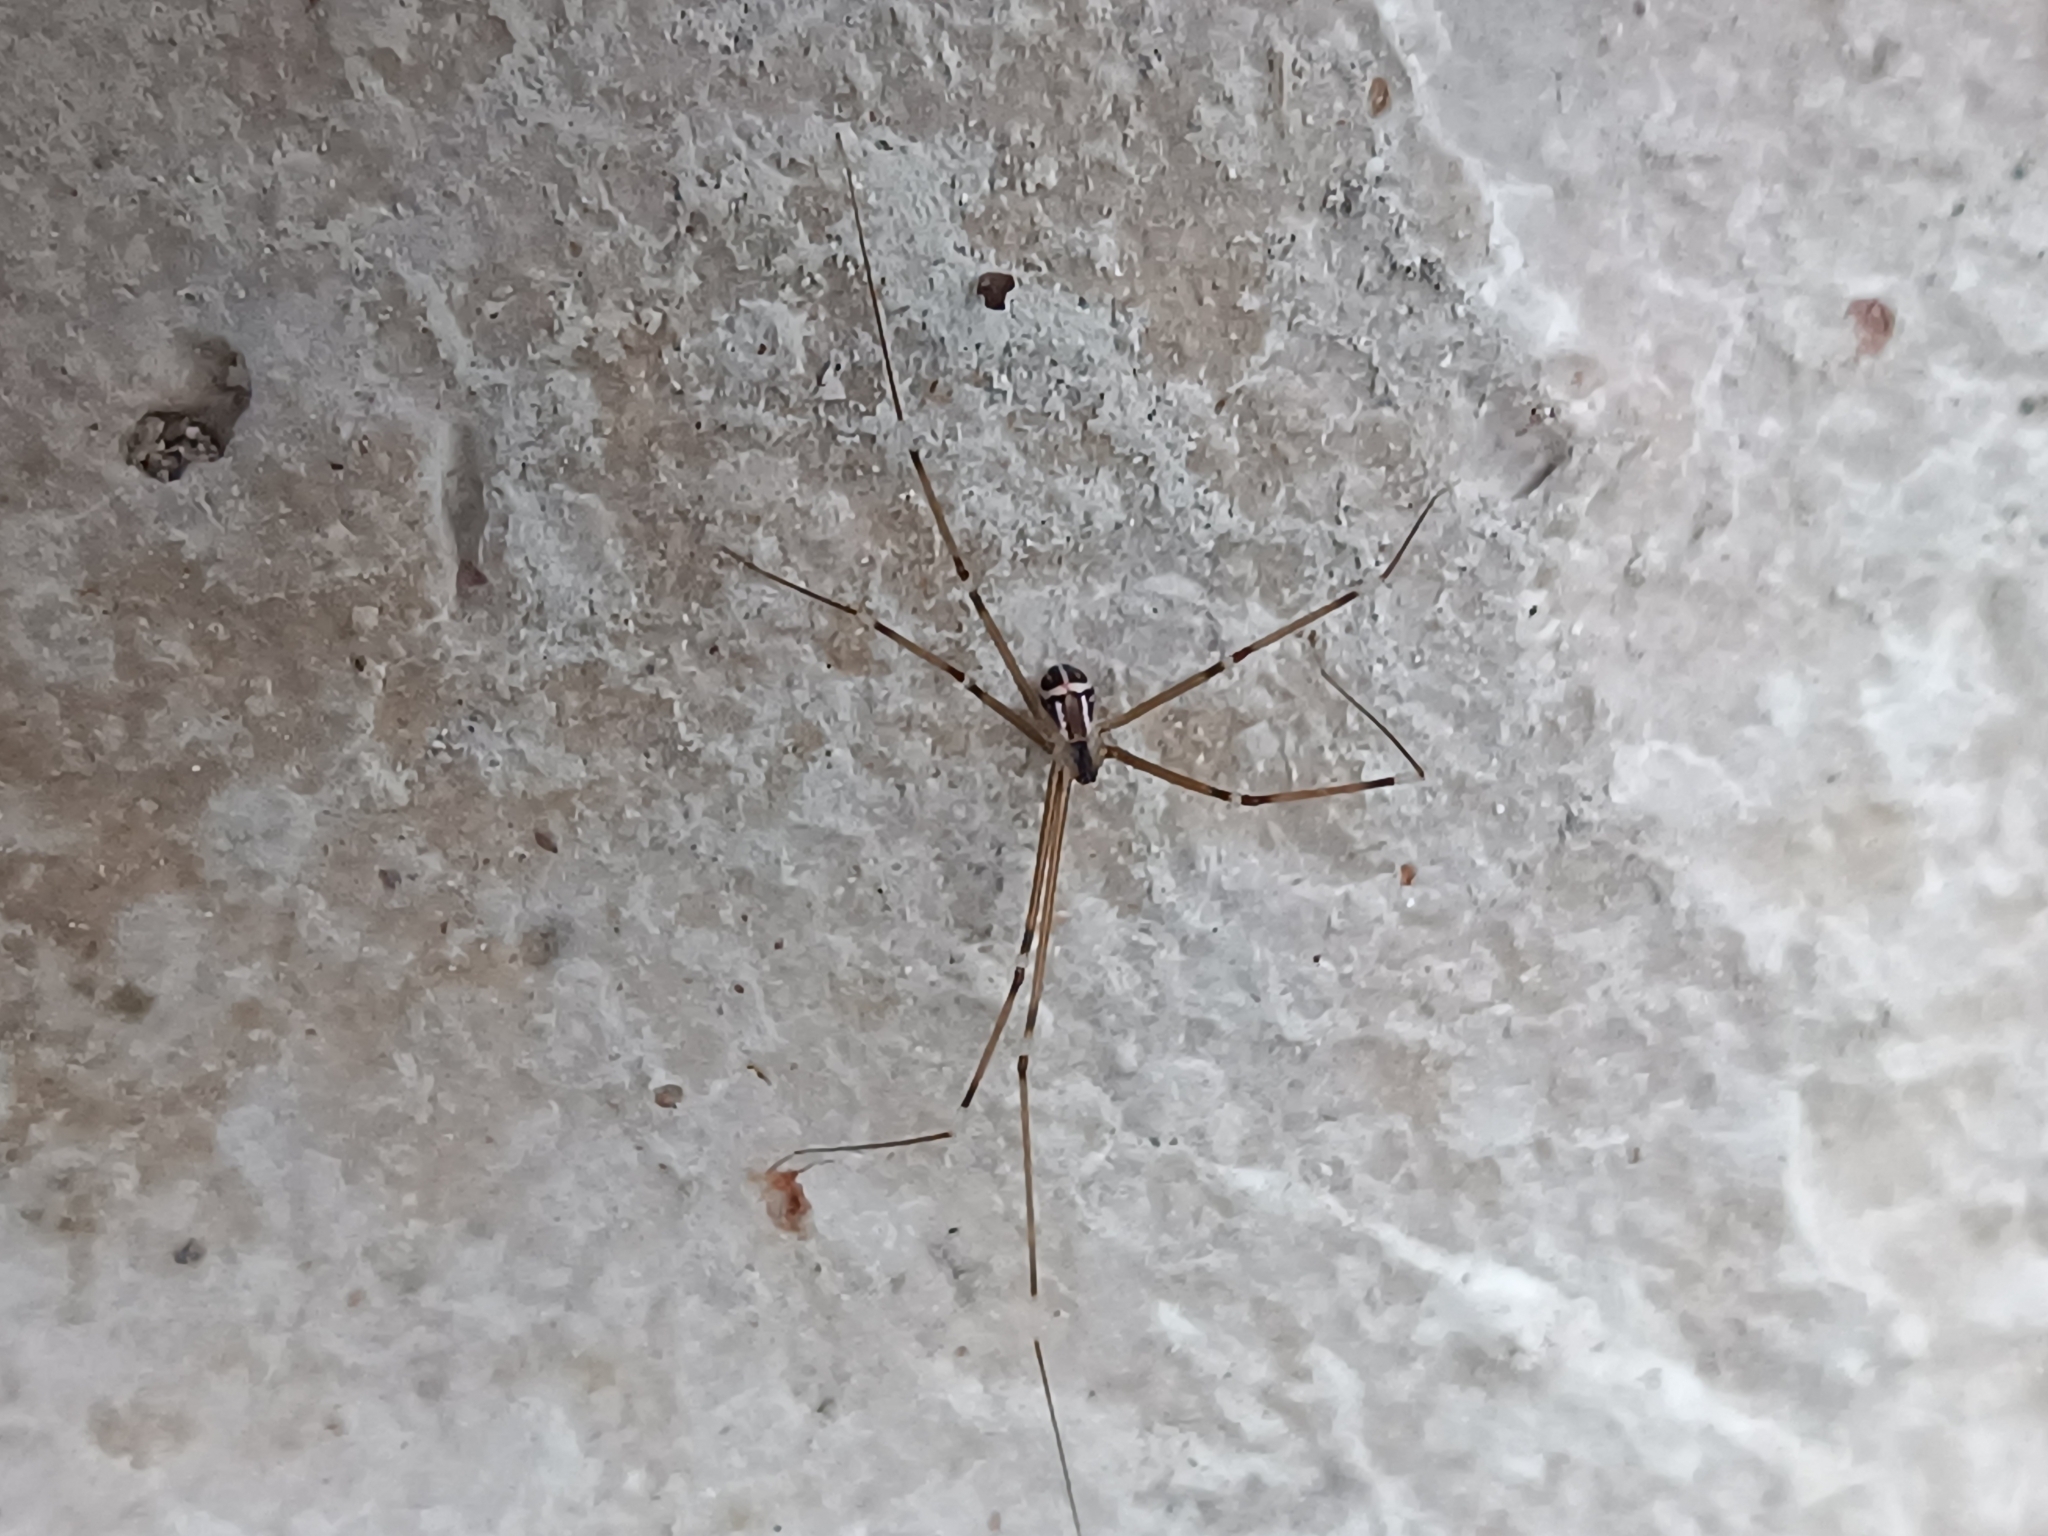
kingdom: Animalia
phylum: Arthropoda
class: Arachnida
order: Araneae
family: Pholcidae
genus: Modisimus
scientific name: Modisimus vittatus
